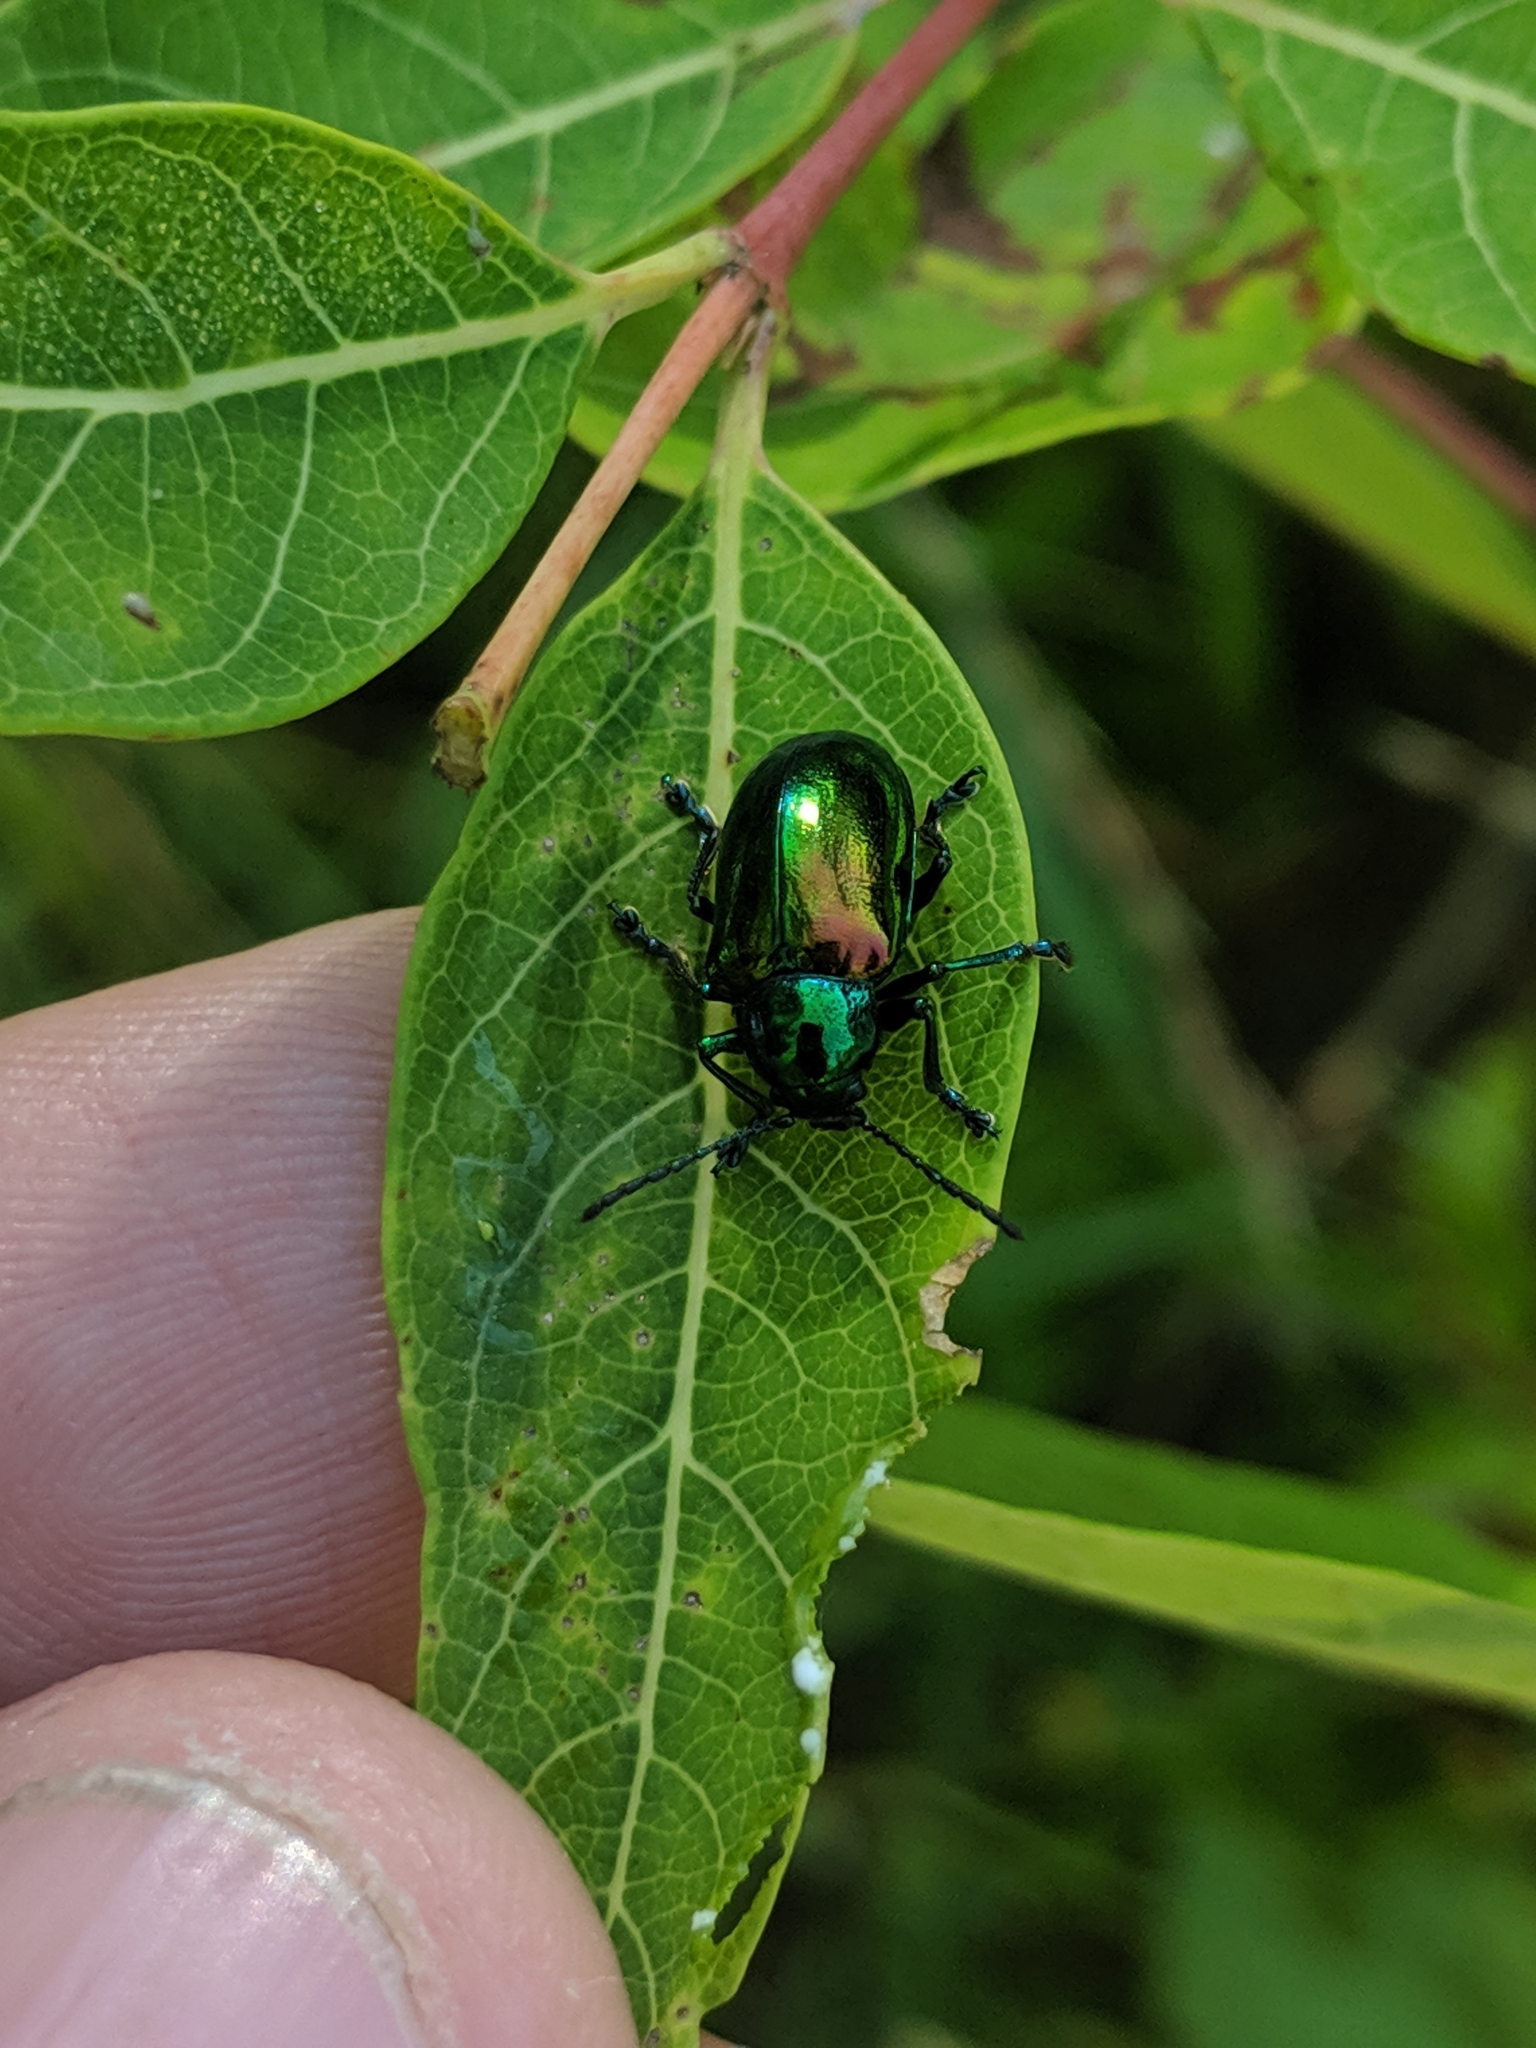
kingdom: Animalia
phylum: Arthropoda
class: Insecta
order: Coleoptera
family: Chrysomelidae
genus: Chrysochus
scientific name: Chrysochus auratus
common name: Dogbane leaf beetle
